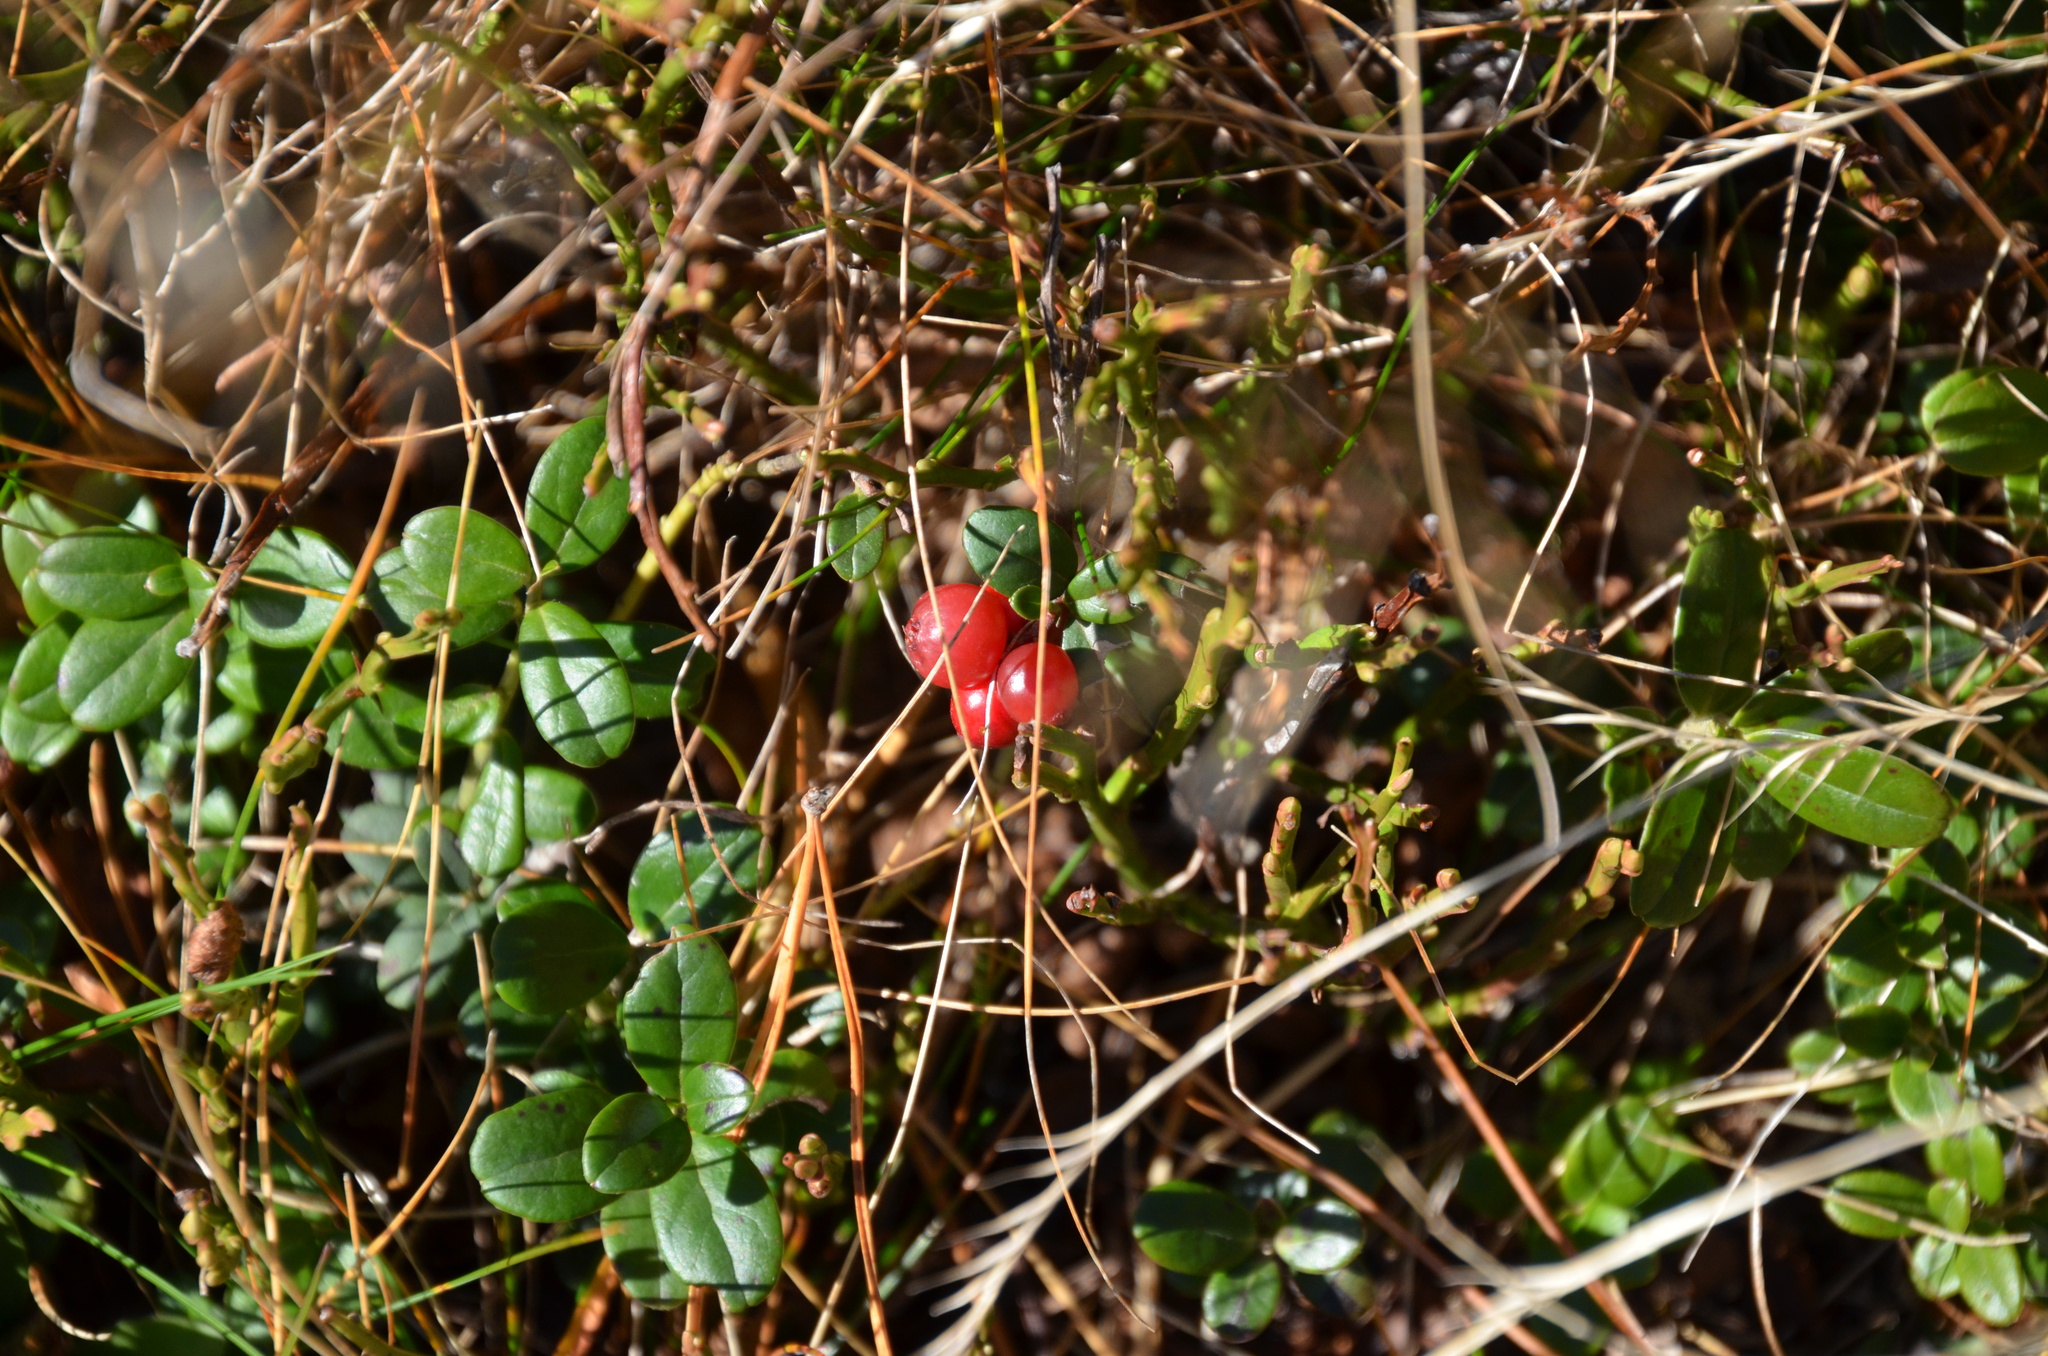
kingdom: Plantae
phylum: Tracheophyta
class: Magnoliopsida
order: Ericales
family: Ericaceae
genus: Vaccinium
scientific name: Vaccinium vitis-idaea
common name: Cowberry
